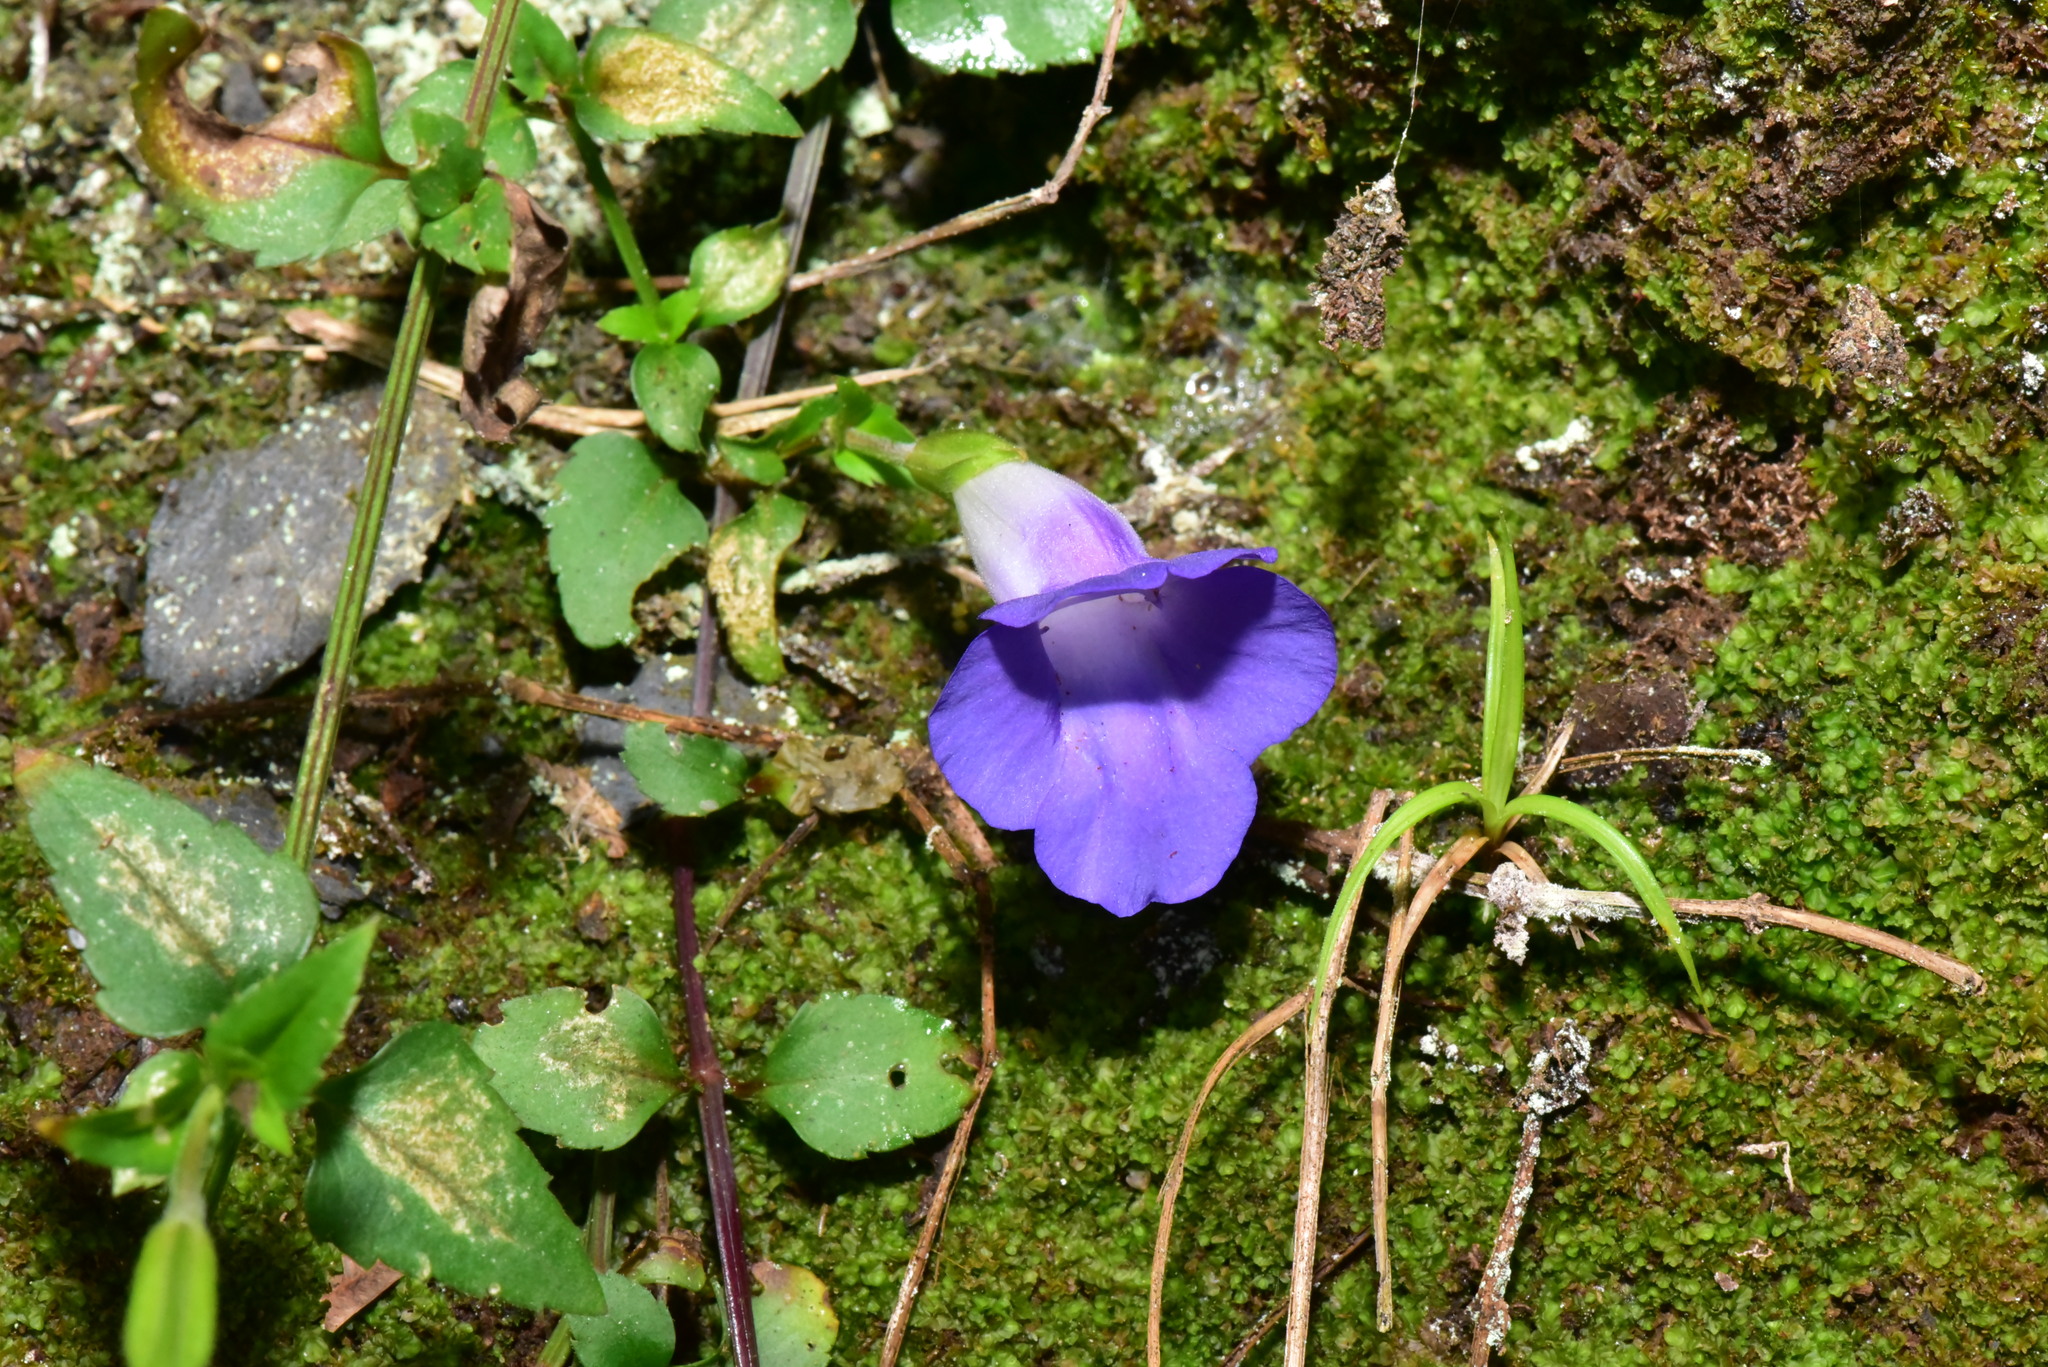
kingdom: Plantae
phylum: Tracheophyta
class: Magnoliopsida
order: Lamiales
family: Linderniaceae
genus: Torenia
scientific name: Torenia concolor
